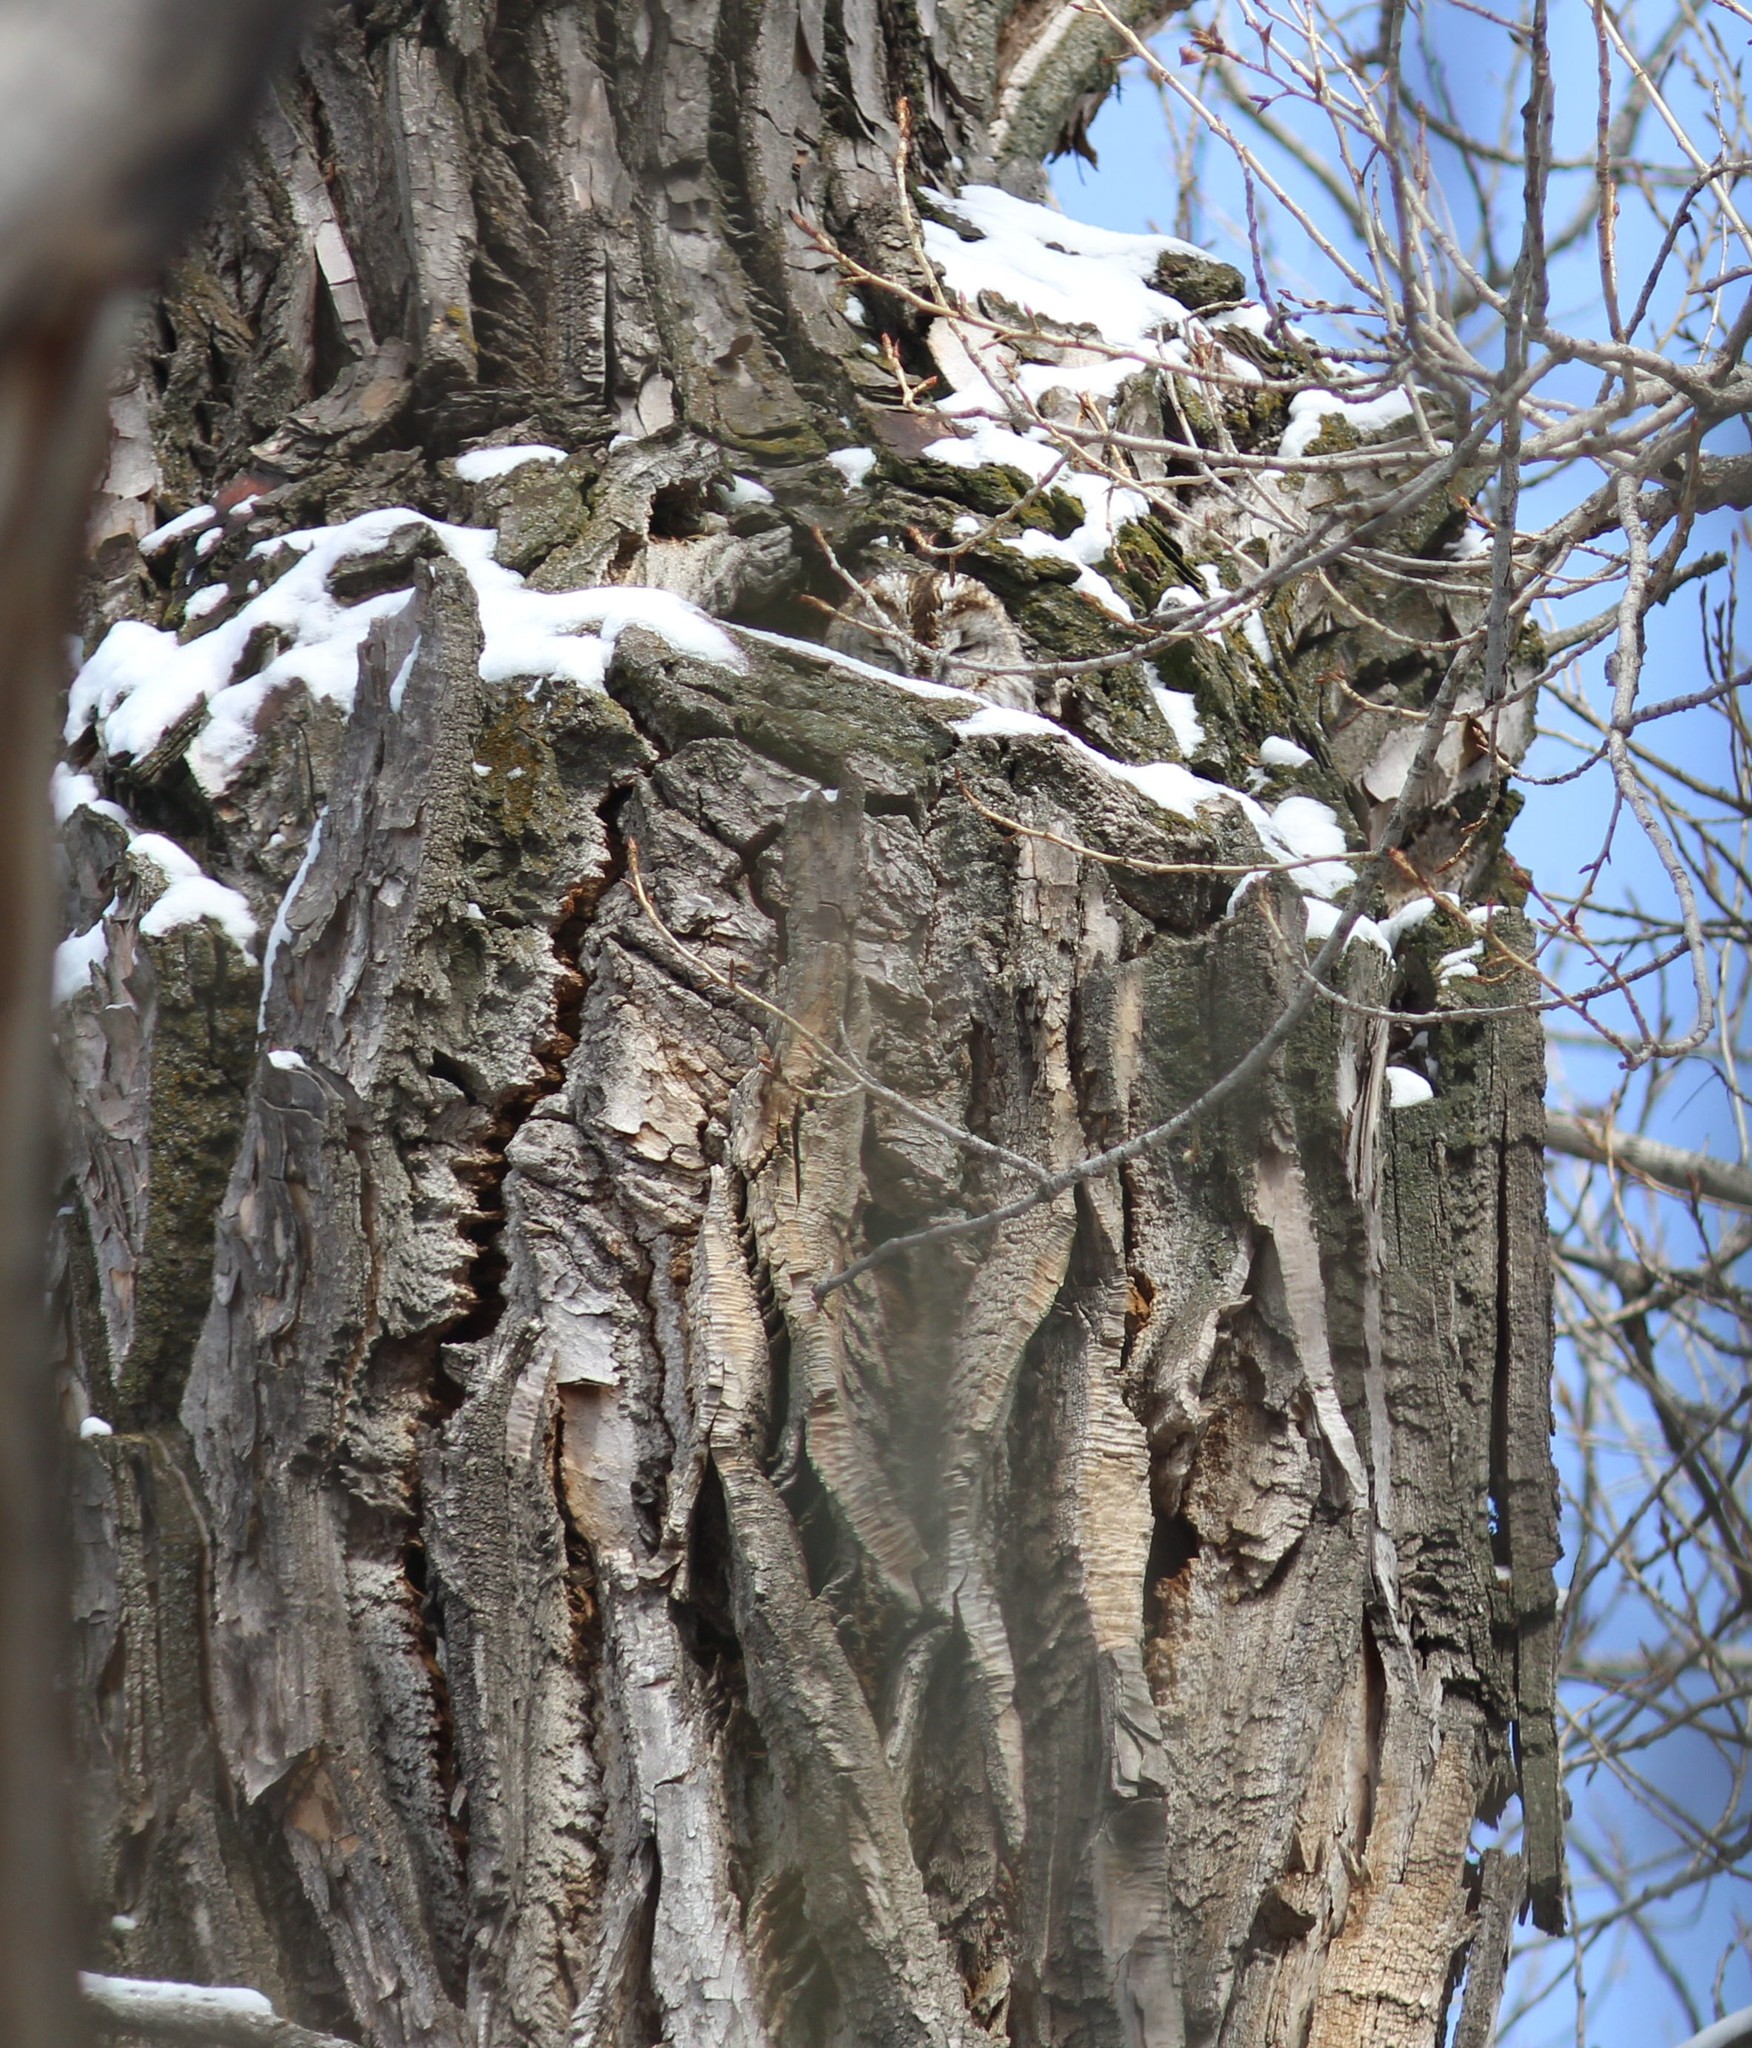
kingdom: Animalia
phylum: Chordata
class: Aves
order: Strigiformes
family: Strigidae
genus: Strix
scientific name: Strix aluco
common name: Tawny owl
